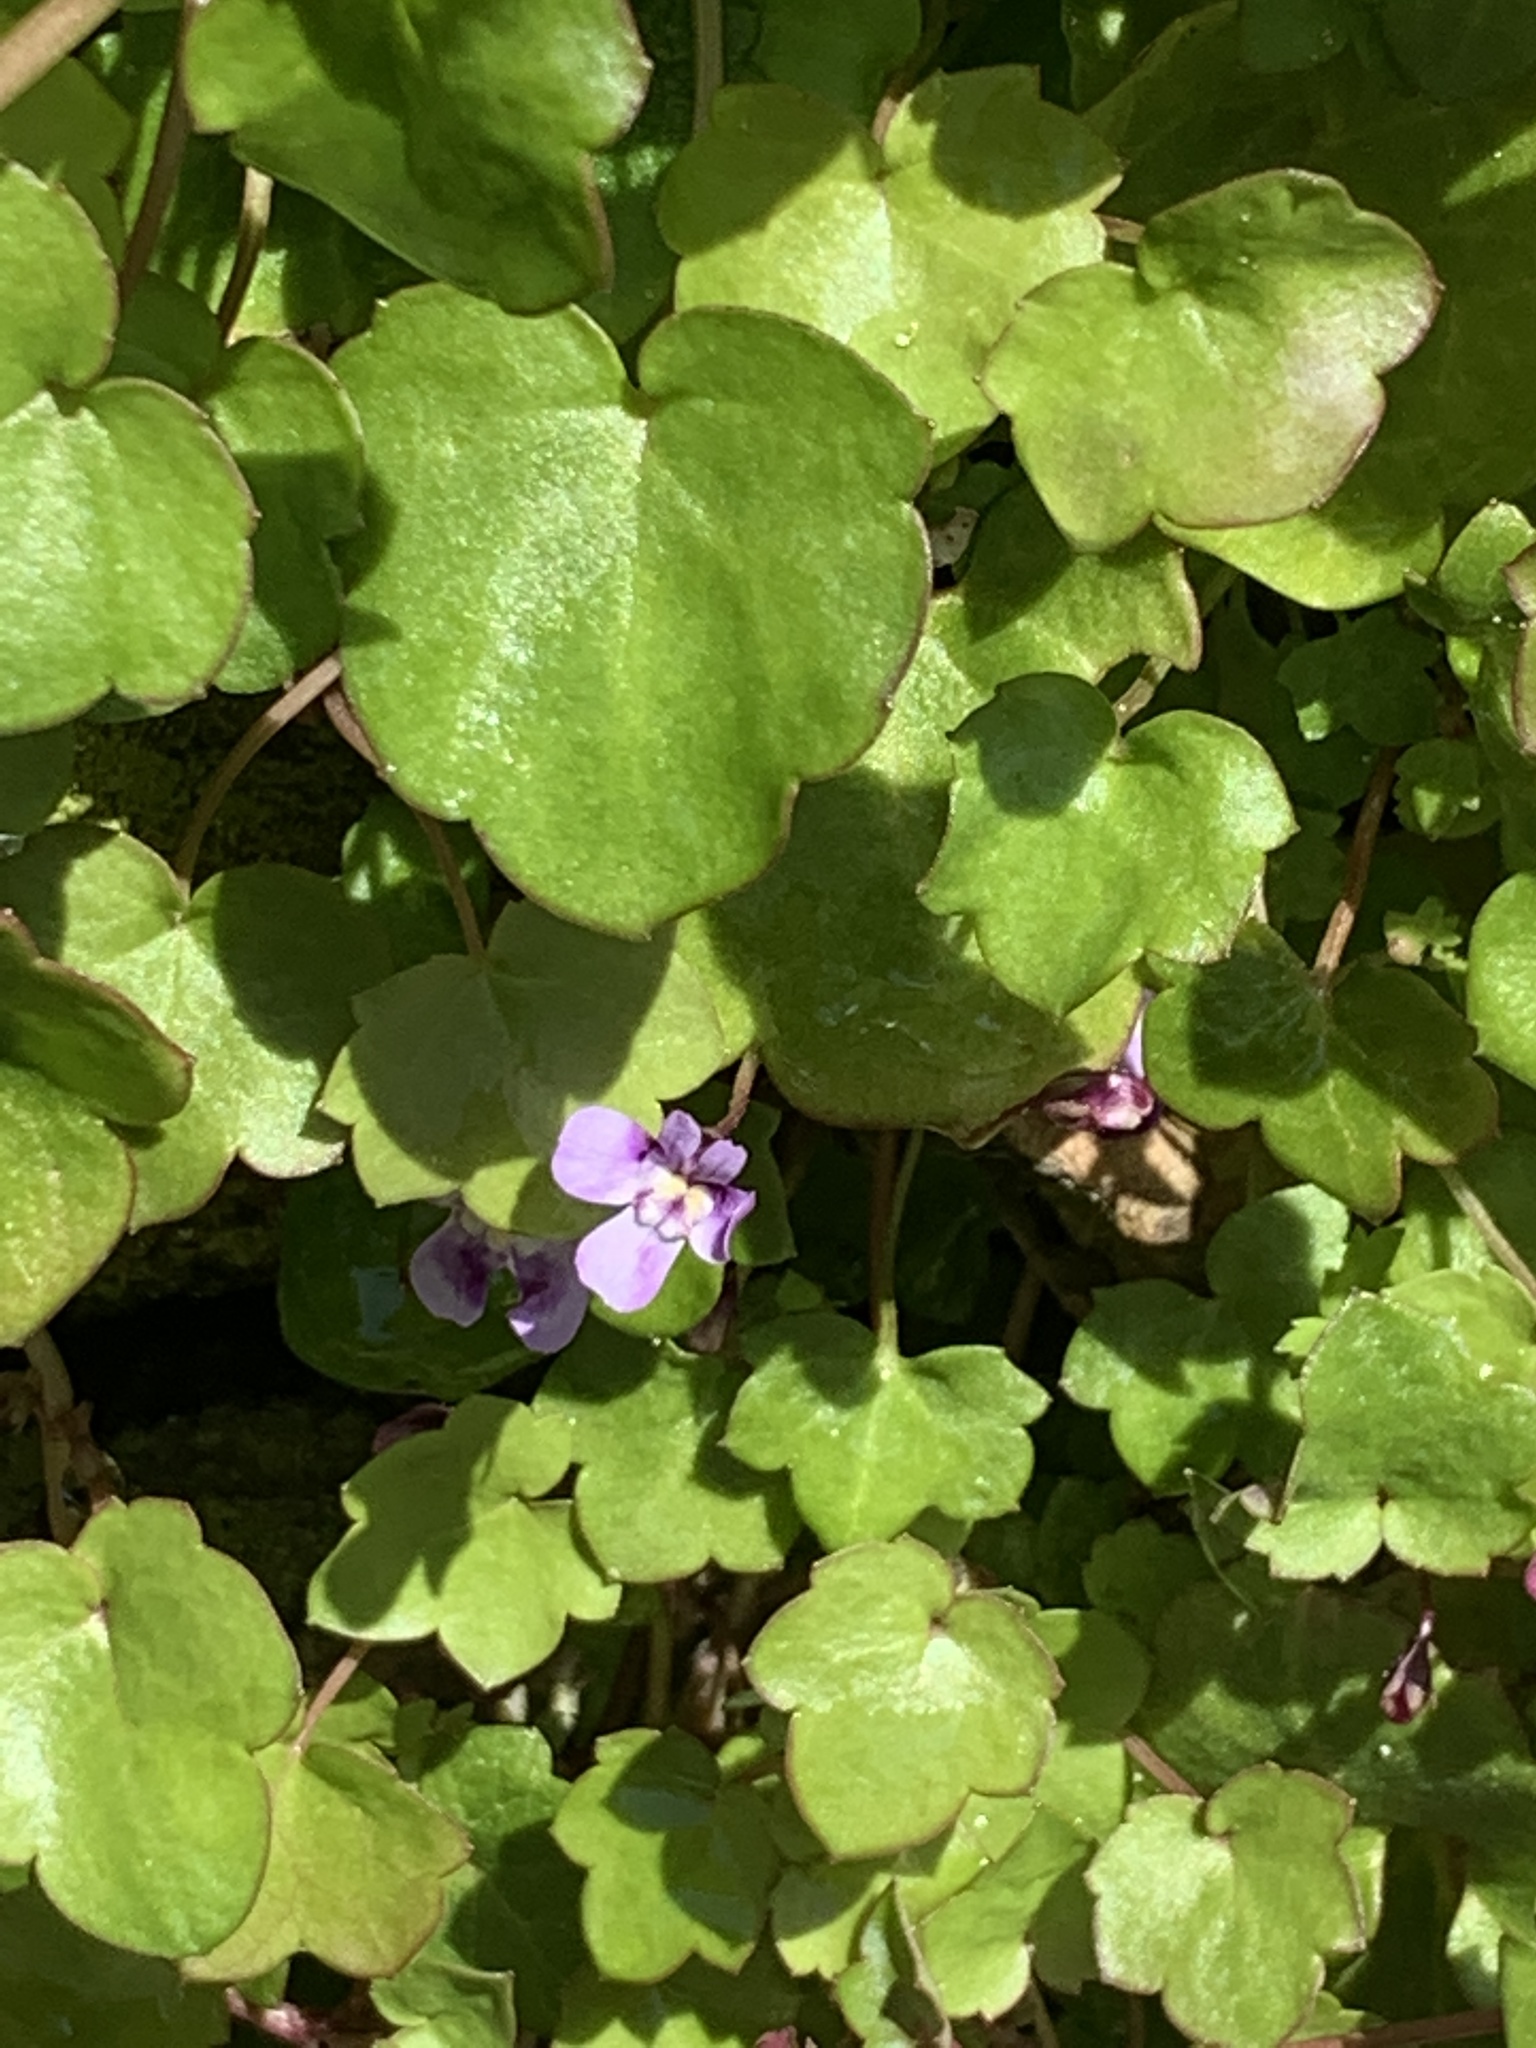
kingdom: Plantae
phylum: Tracheophyta
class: Magnoliopsida
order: Lamiales
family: Plantaginaceae
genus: Cymbalaria
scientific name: Cymbalaria muralis
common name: Ivy-leaved toadflax
